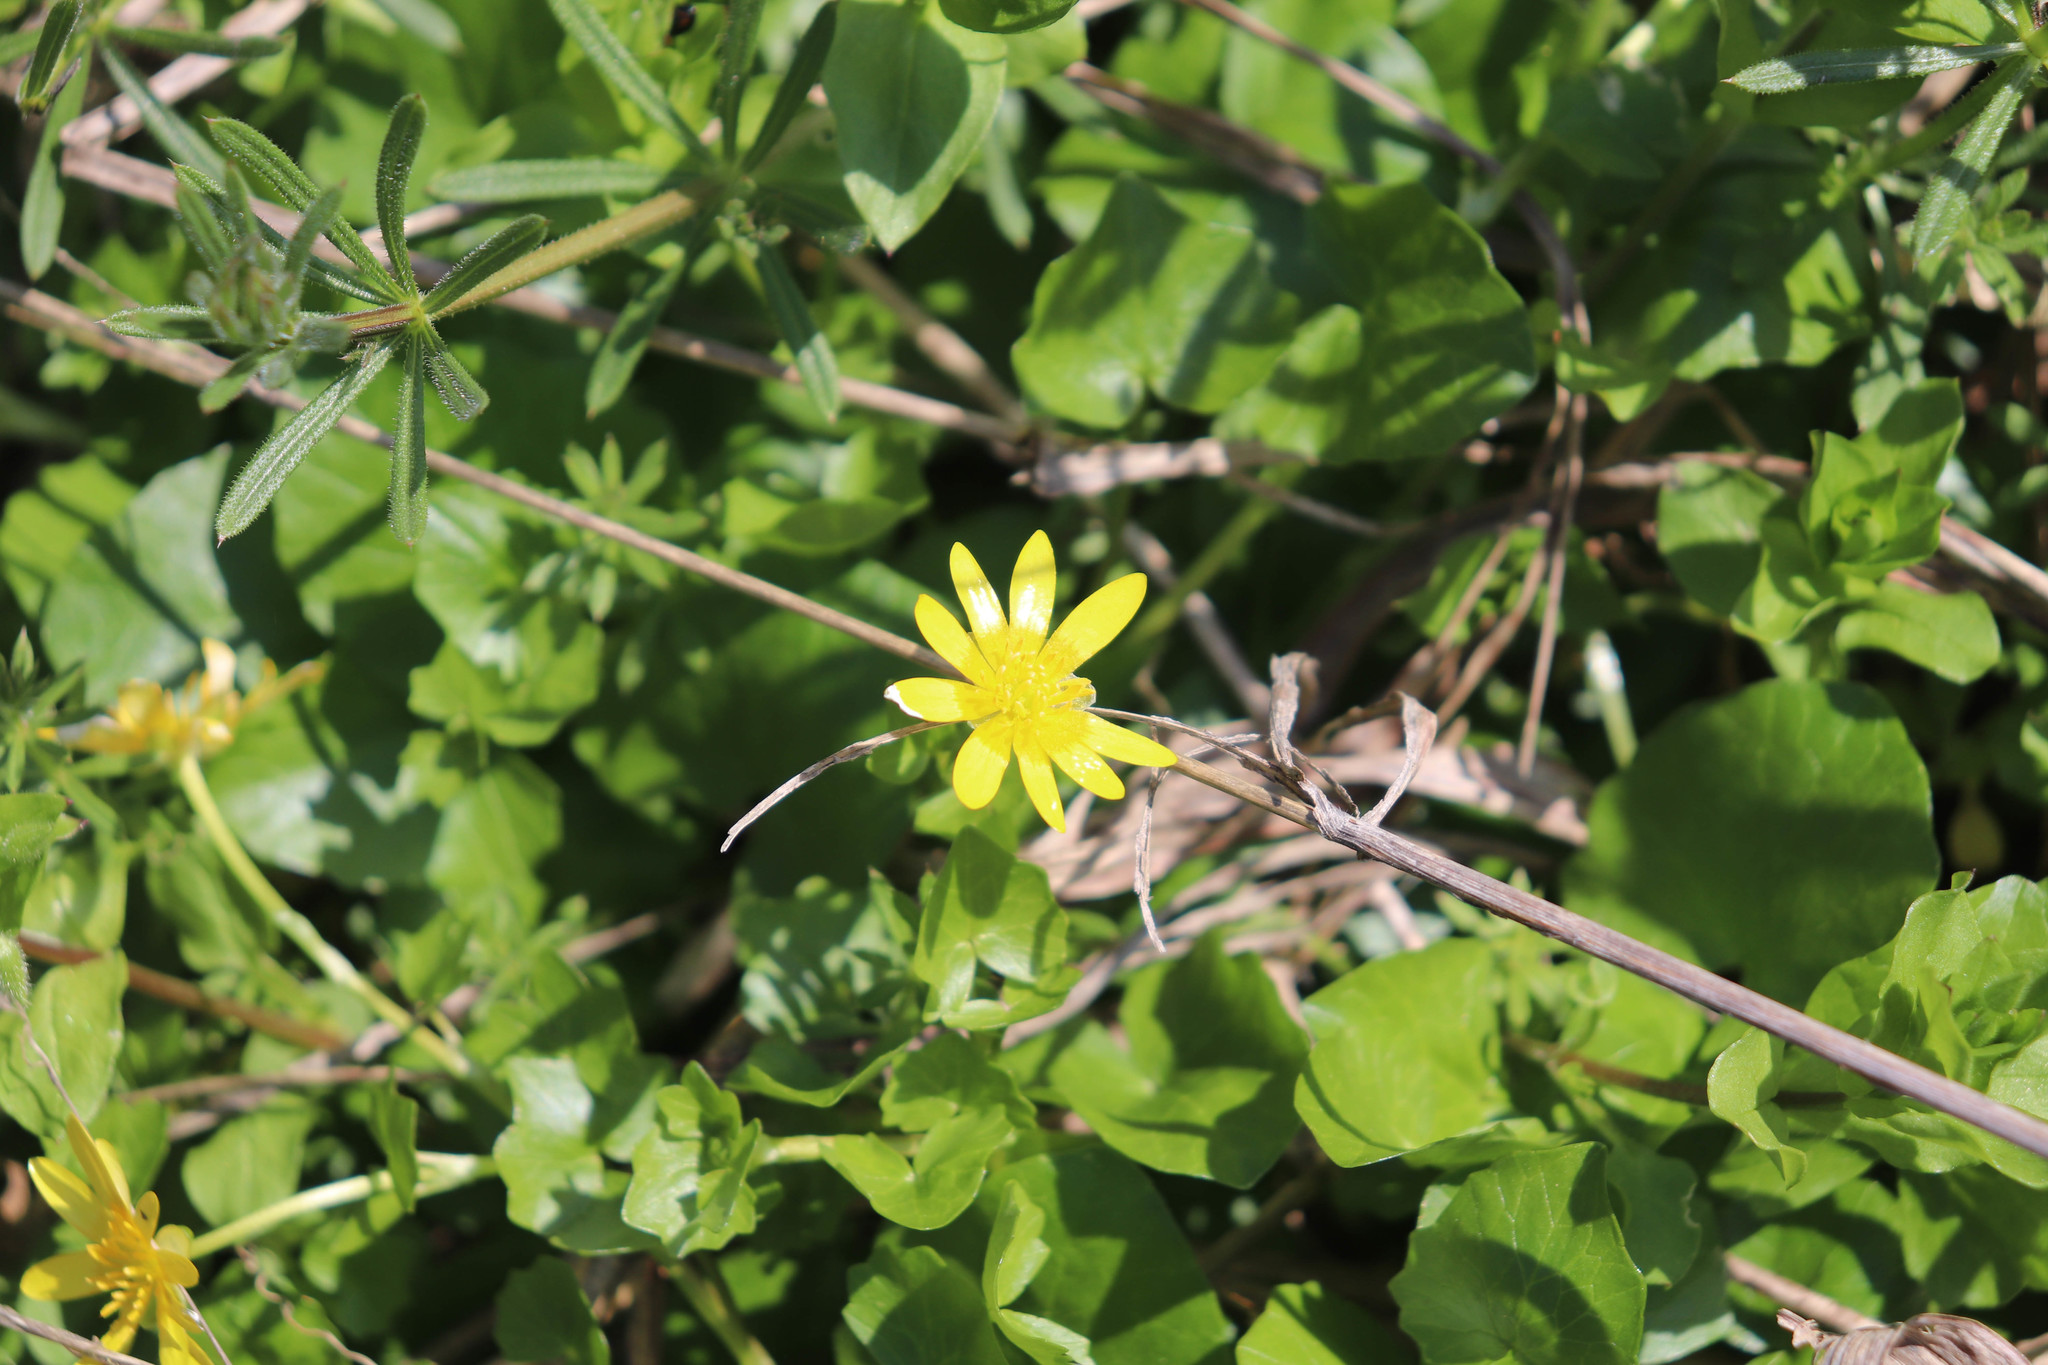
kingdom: Plantae
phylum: Tracheophyta
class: Magnoliopsida
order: Ranunculales
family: Ranunculaceae
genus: Ficaria
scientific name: Ficaria verna
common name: Lesser celandine
